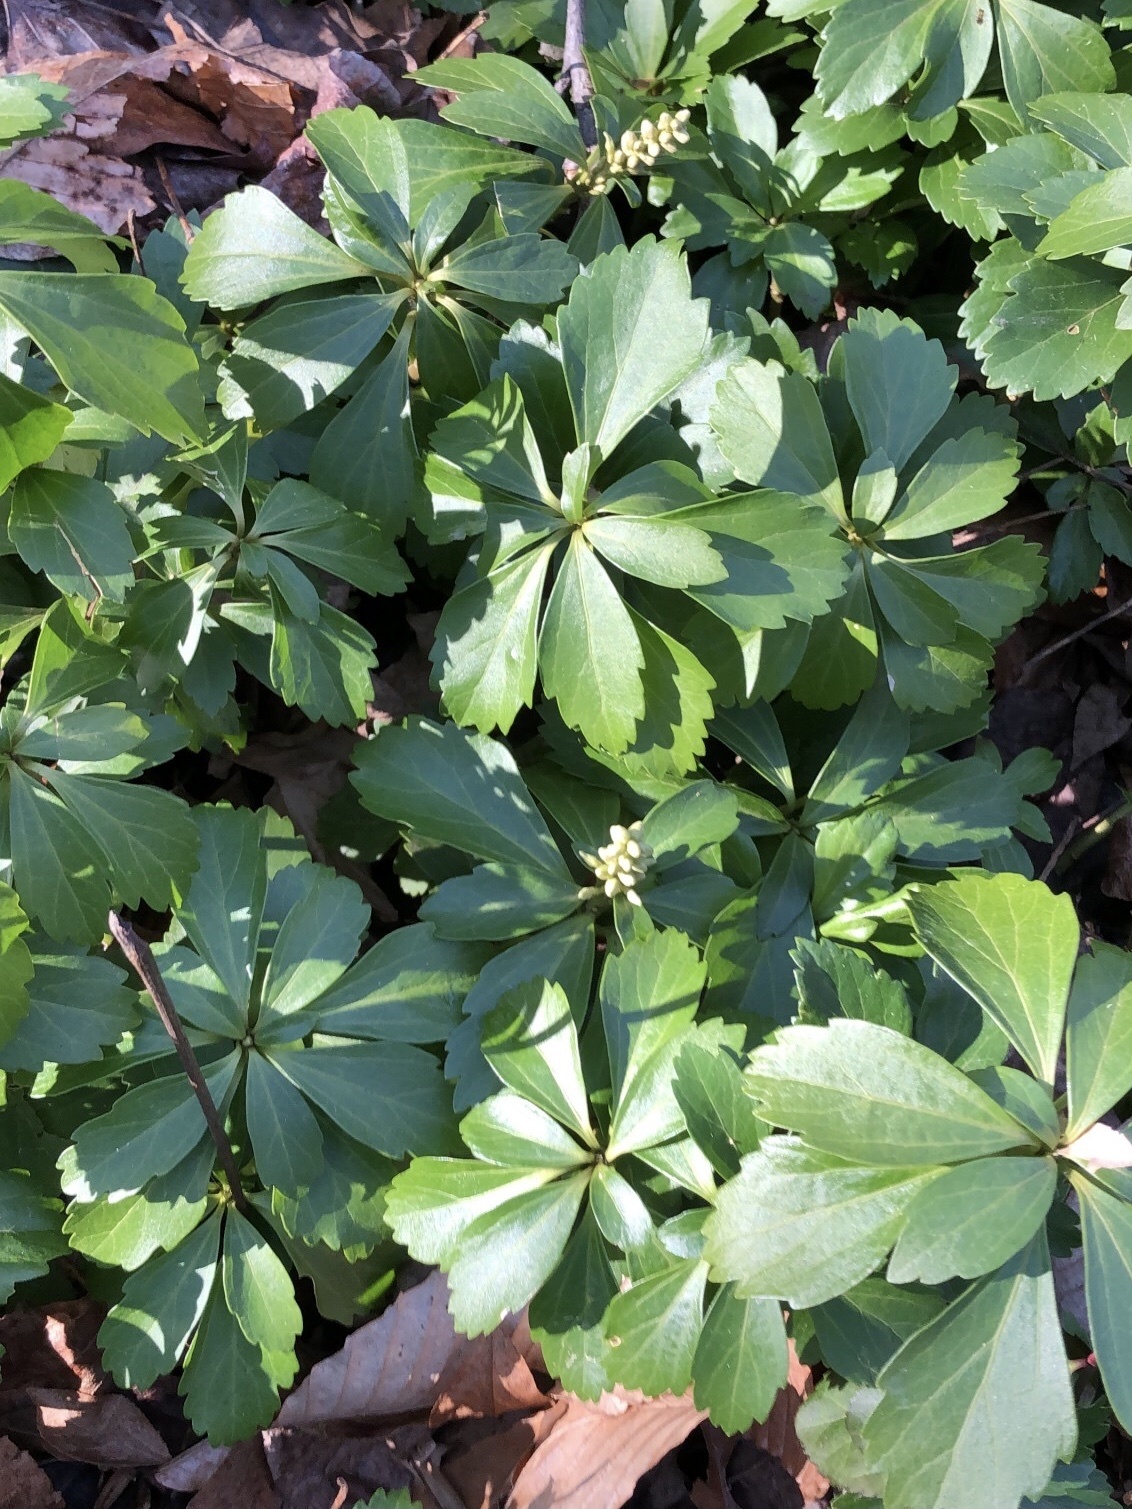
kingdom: Plantae
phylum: Tracheophyta
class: Magnoliopsida
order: Buxales
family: Buxaceae
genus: Pachysandra
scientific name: Pachysandra terminalis
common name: Japanese pachysandra
